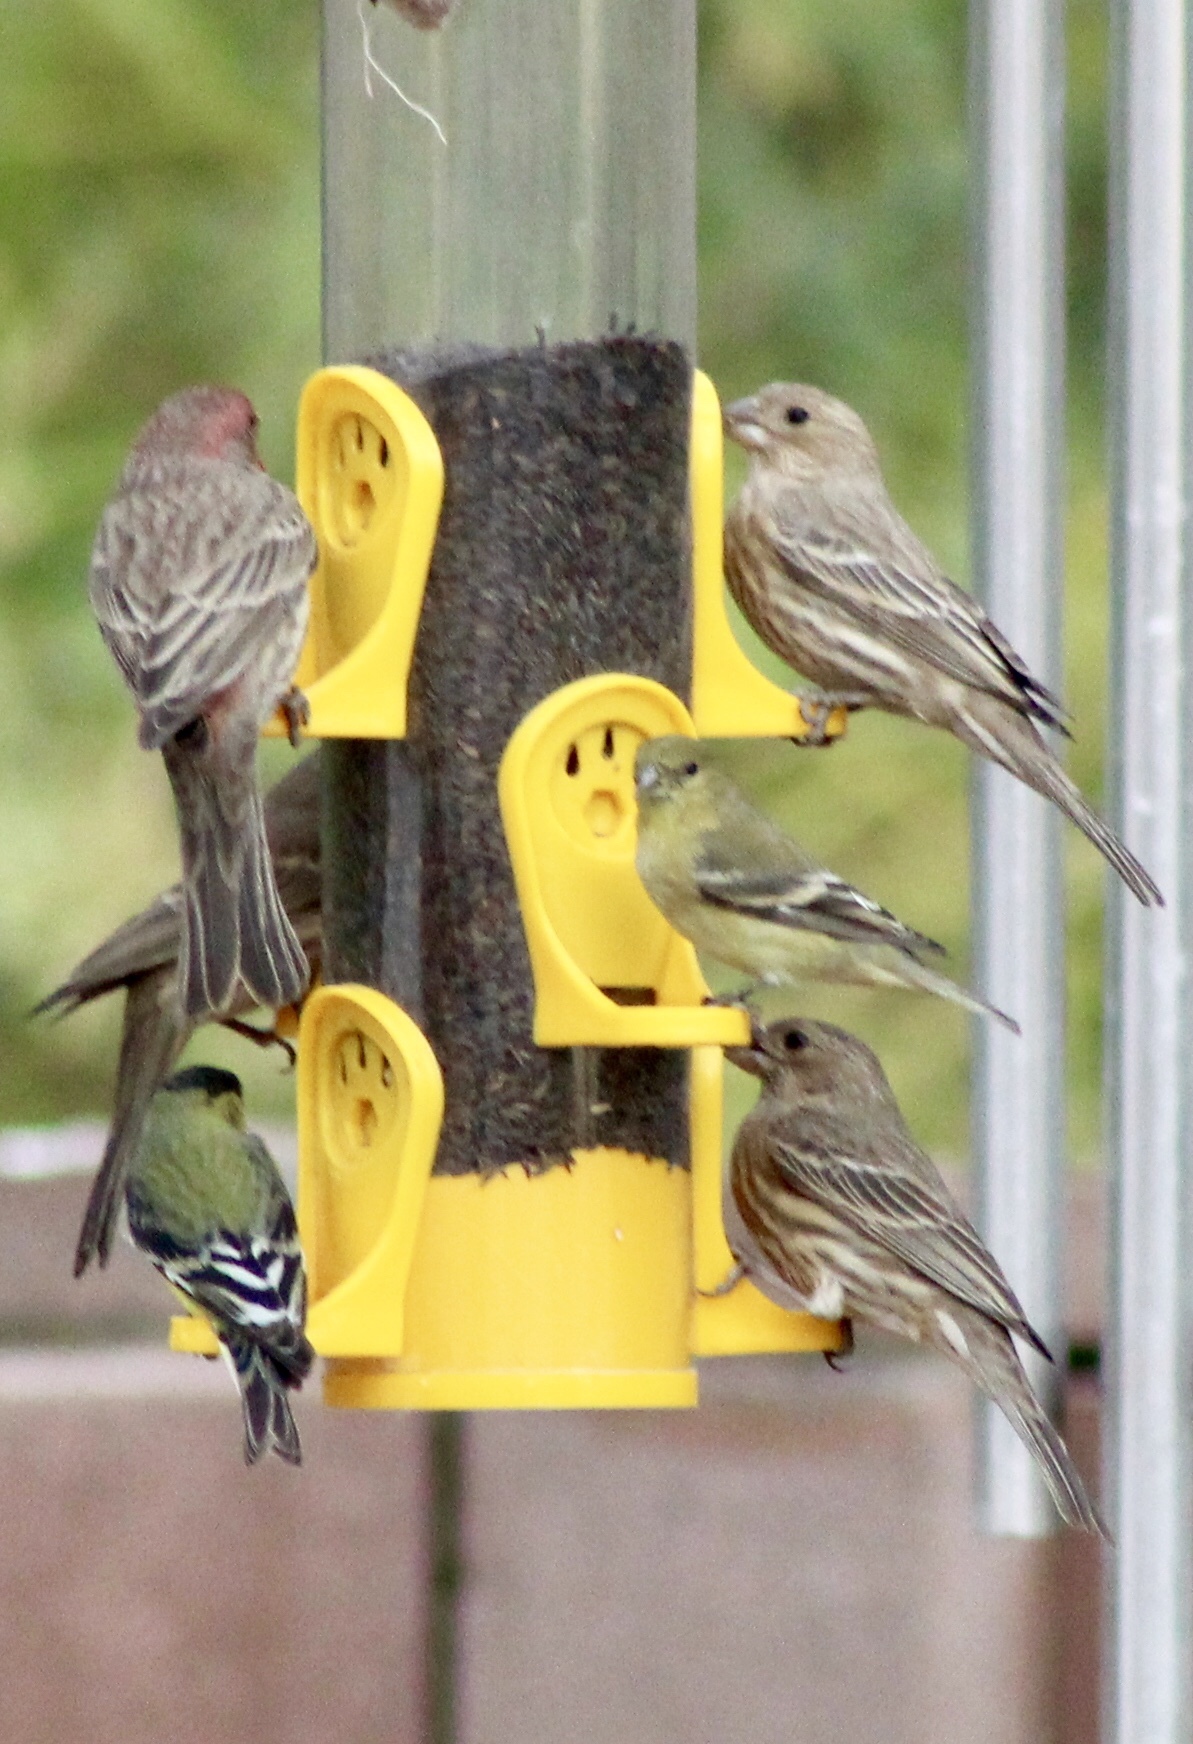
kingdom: Animalia
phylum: Chordata
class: Aves
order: Passeriformes
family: Fringillidae
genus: Haemorhous
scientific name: Haemorhous mexicanus
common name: House finch
